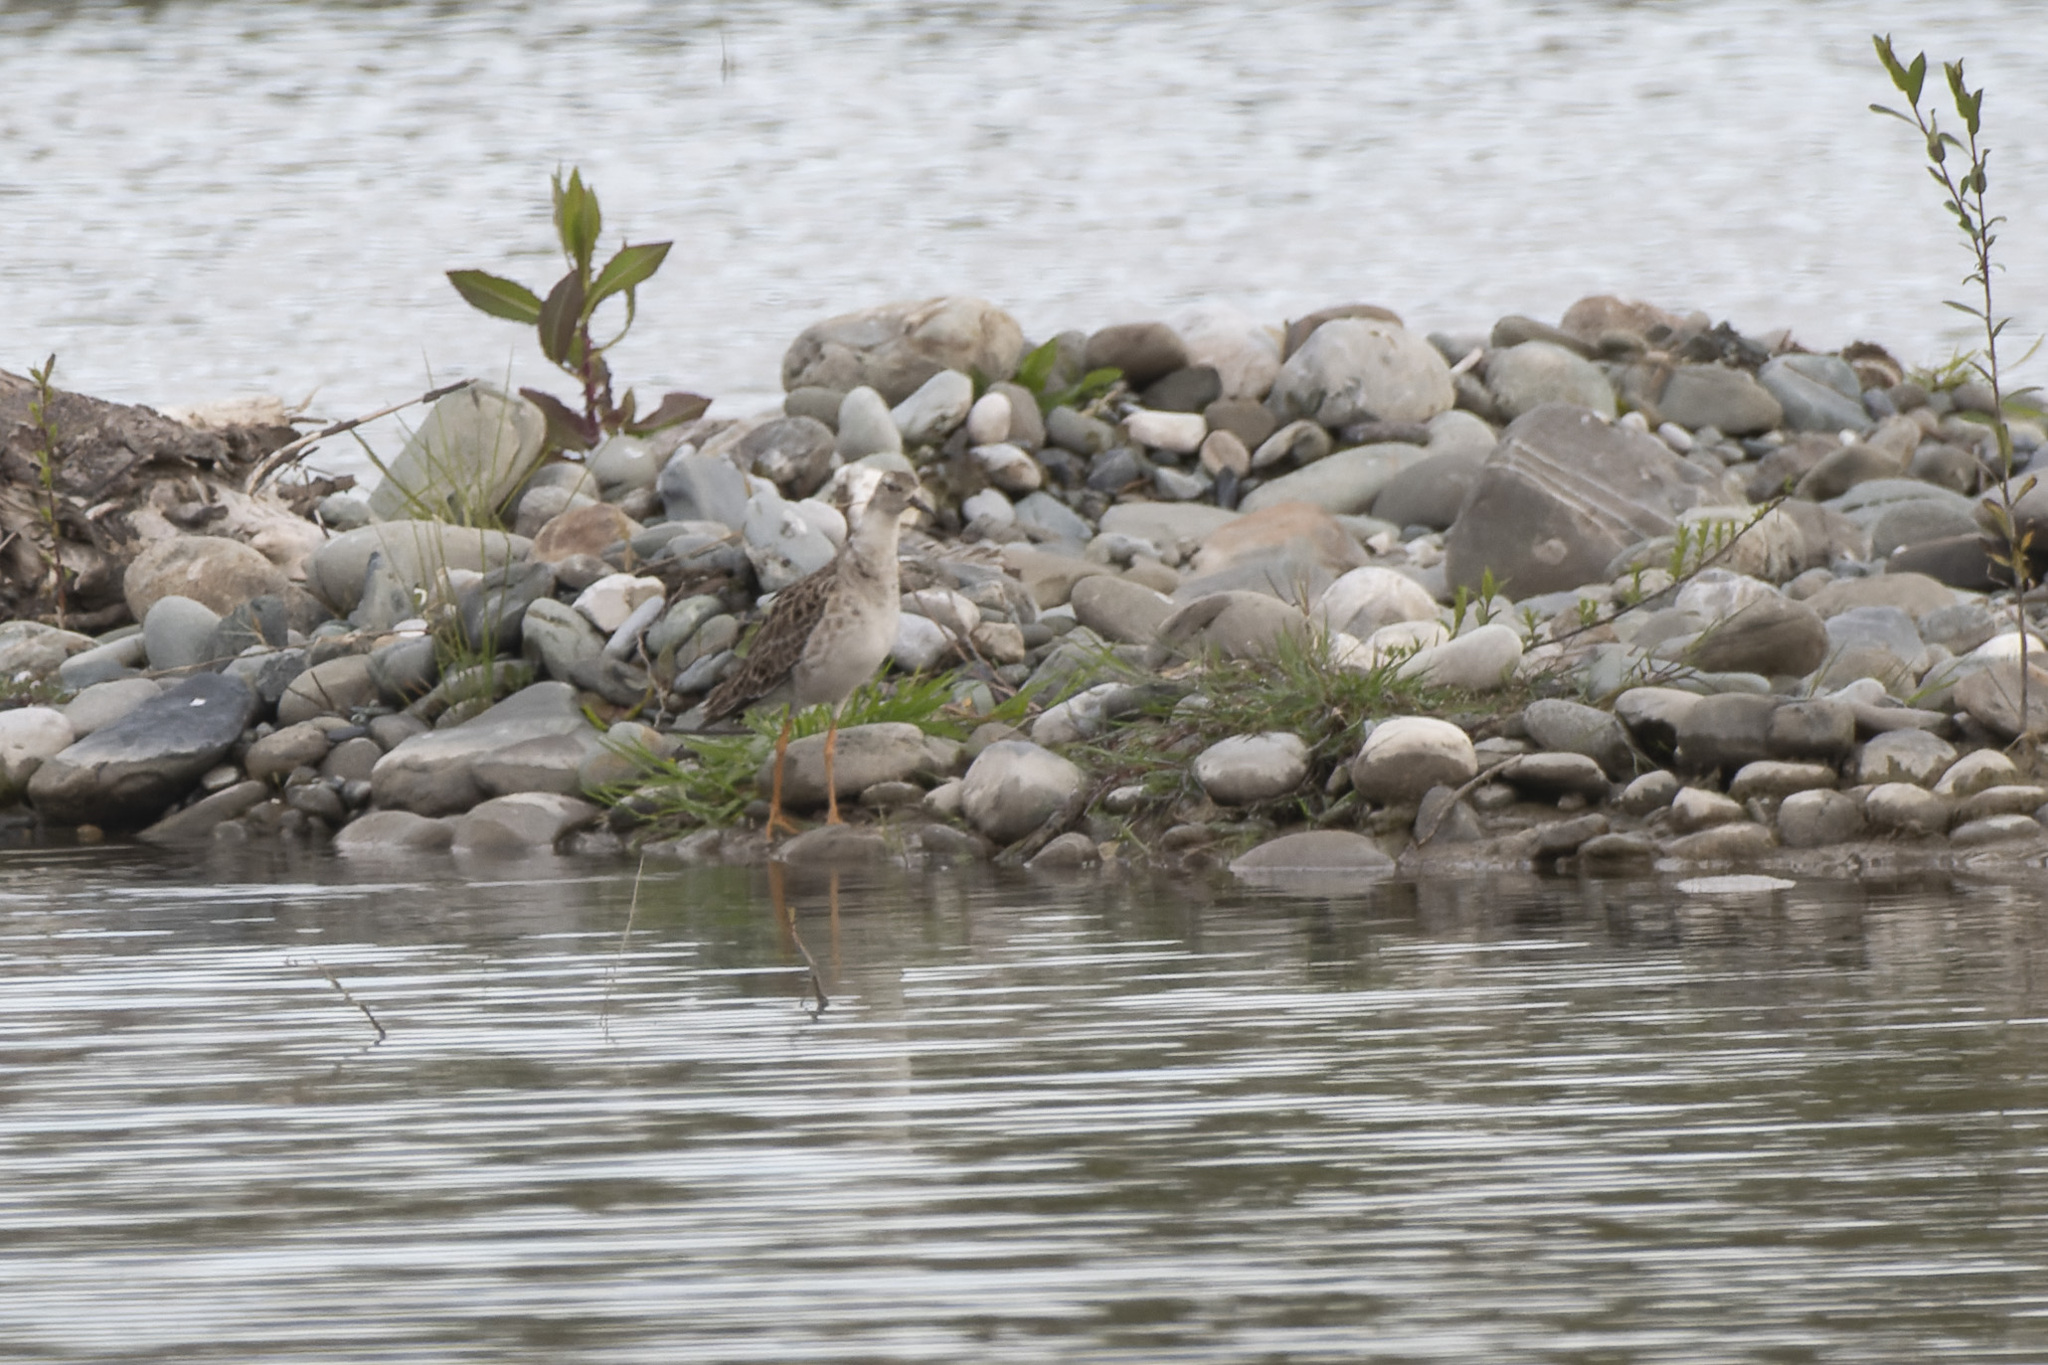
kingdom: Animalia
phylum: Chordata
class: Aves
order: Charadriiformes
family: Scolopacidae
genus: Calidris
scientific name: Calidris pugnax
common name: Ruff
